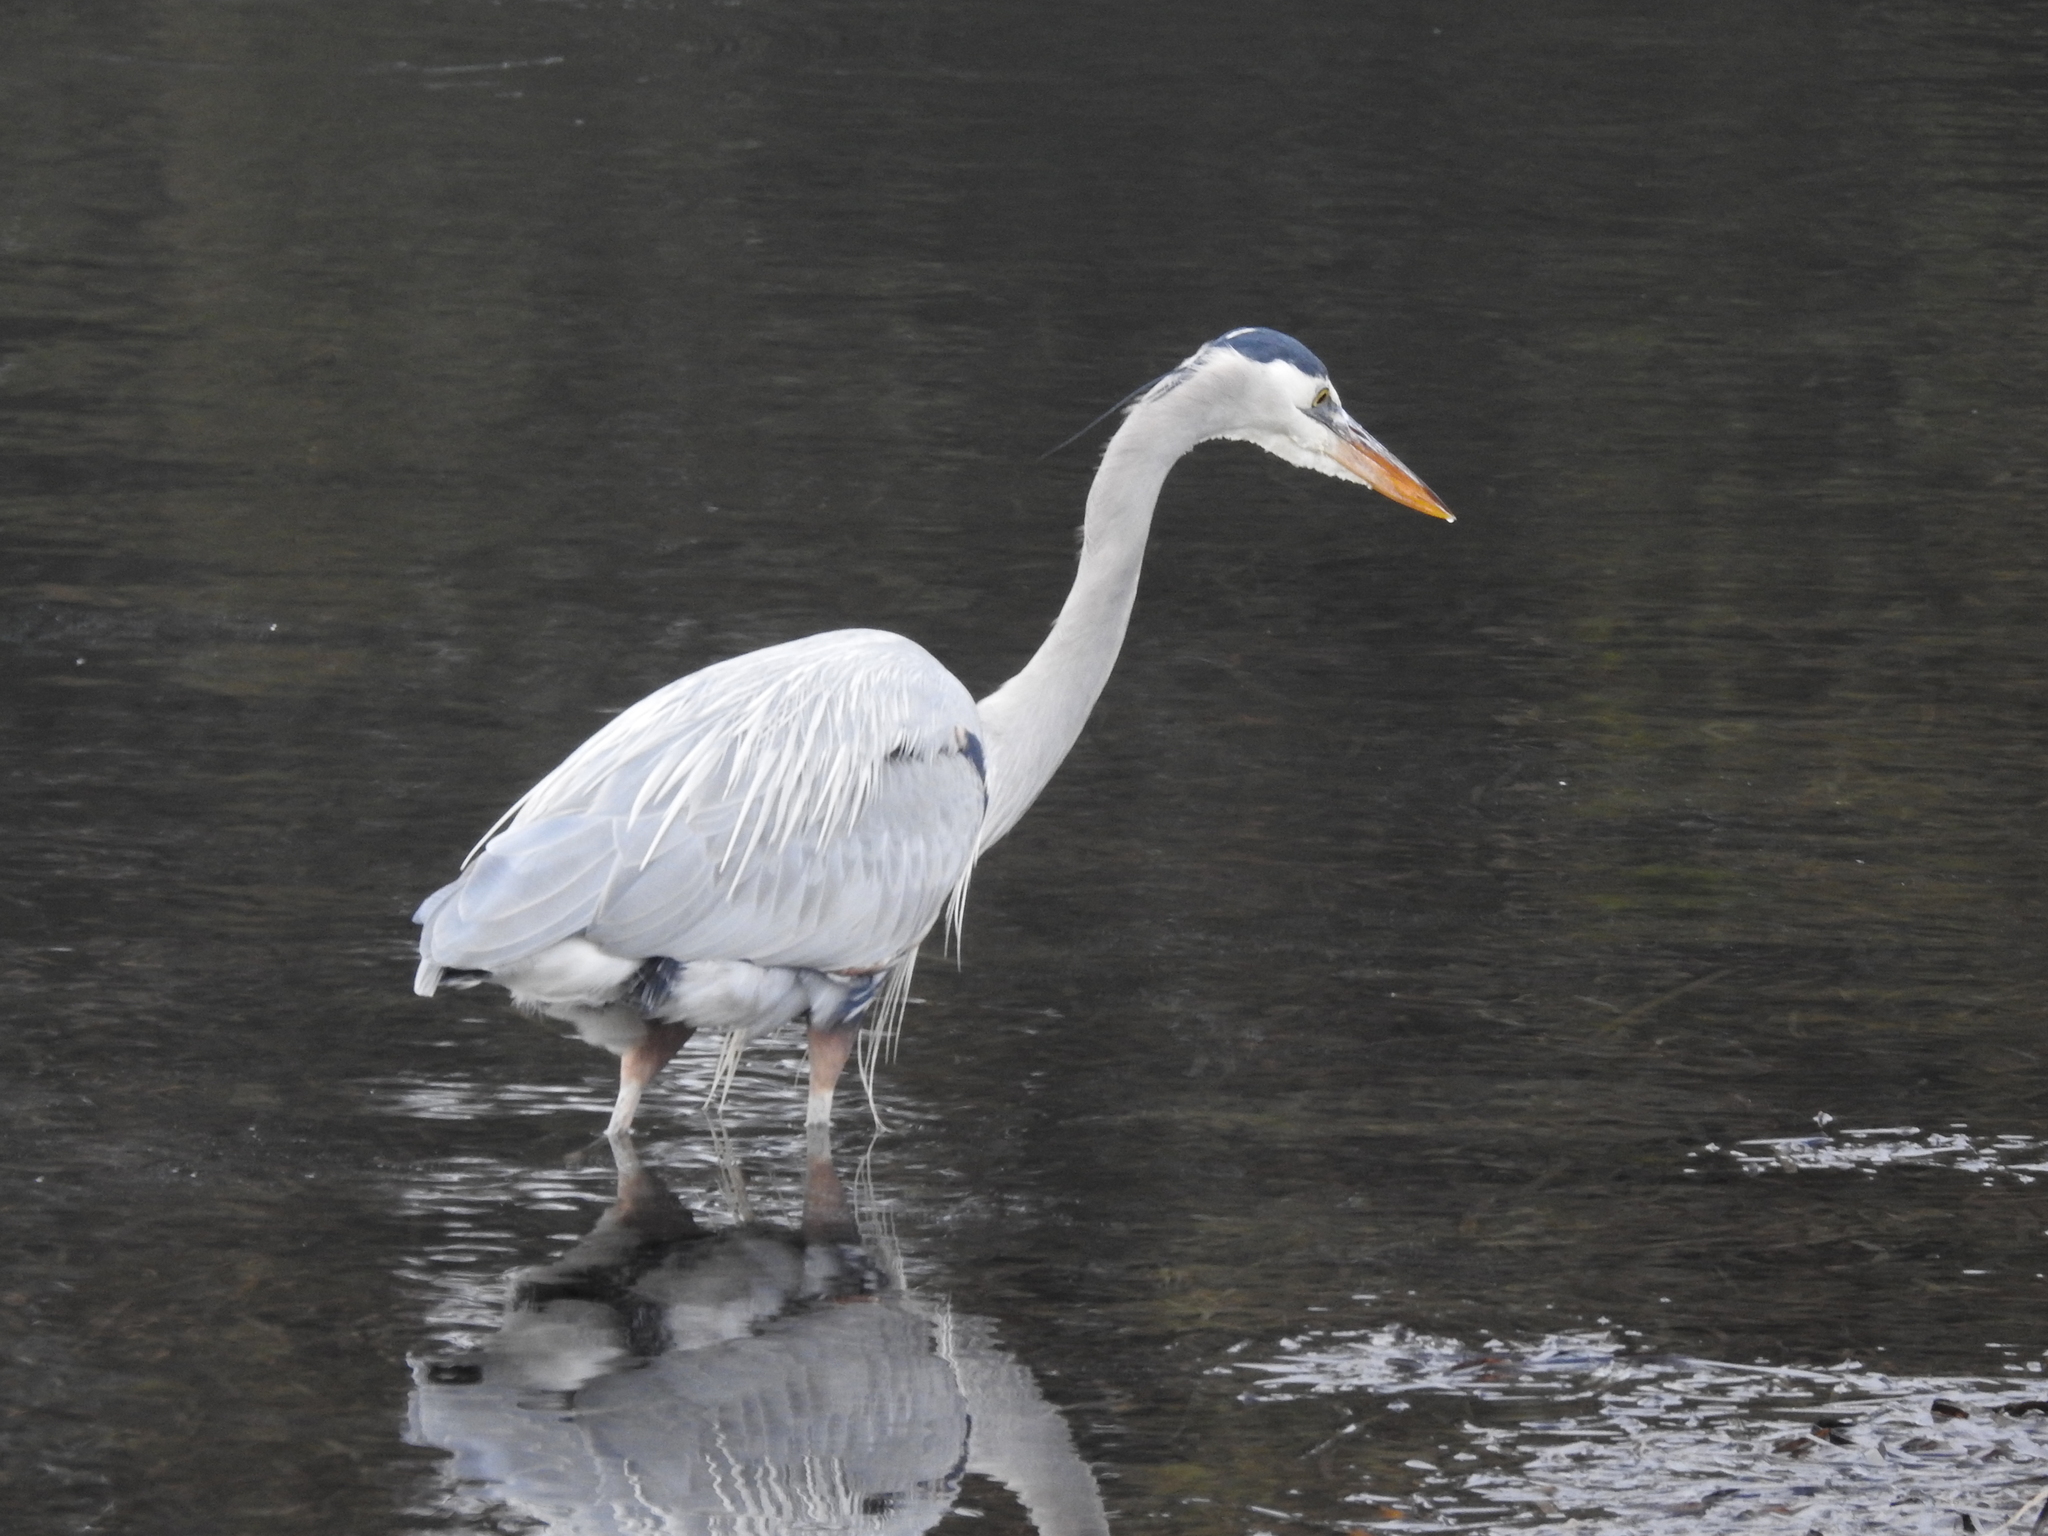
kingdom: Animalia
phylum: Chordata
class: Aves
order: Pelecaniformes
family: Ardeidae
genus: Ardea
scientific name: Ardea herodias
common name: Great blue heron
